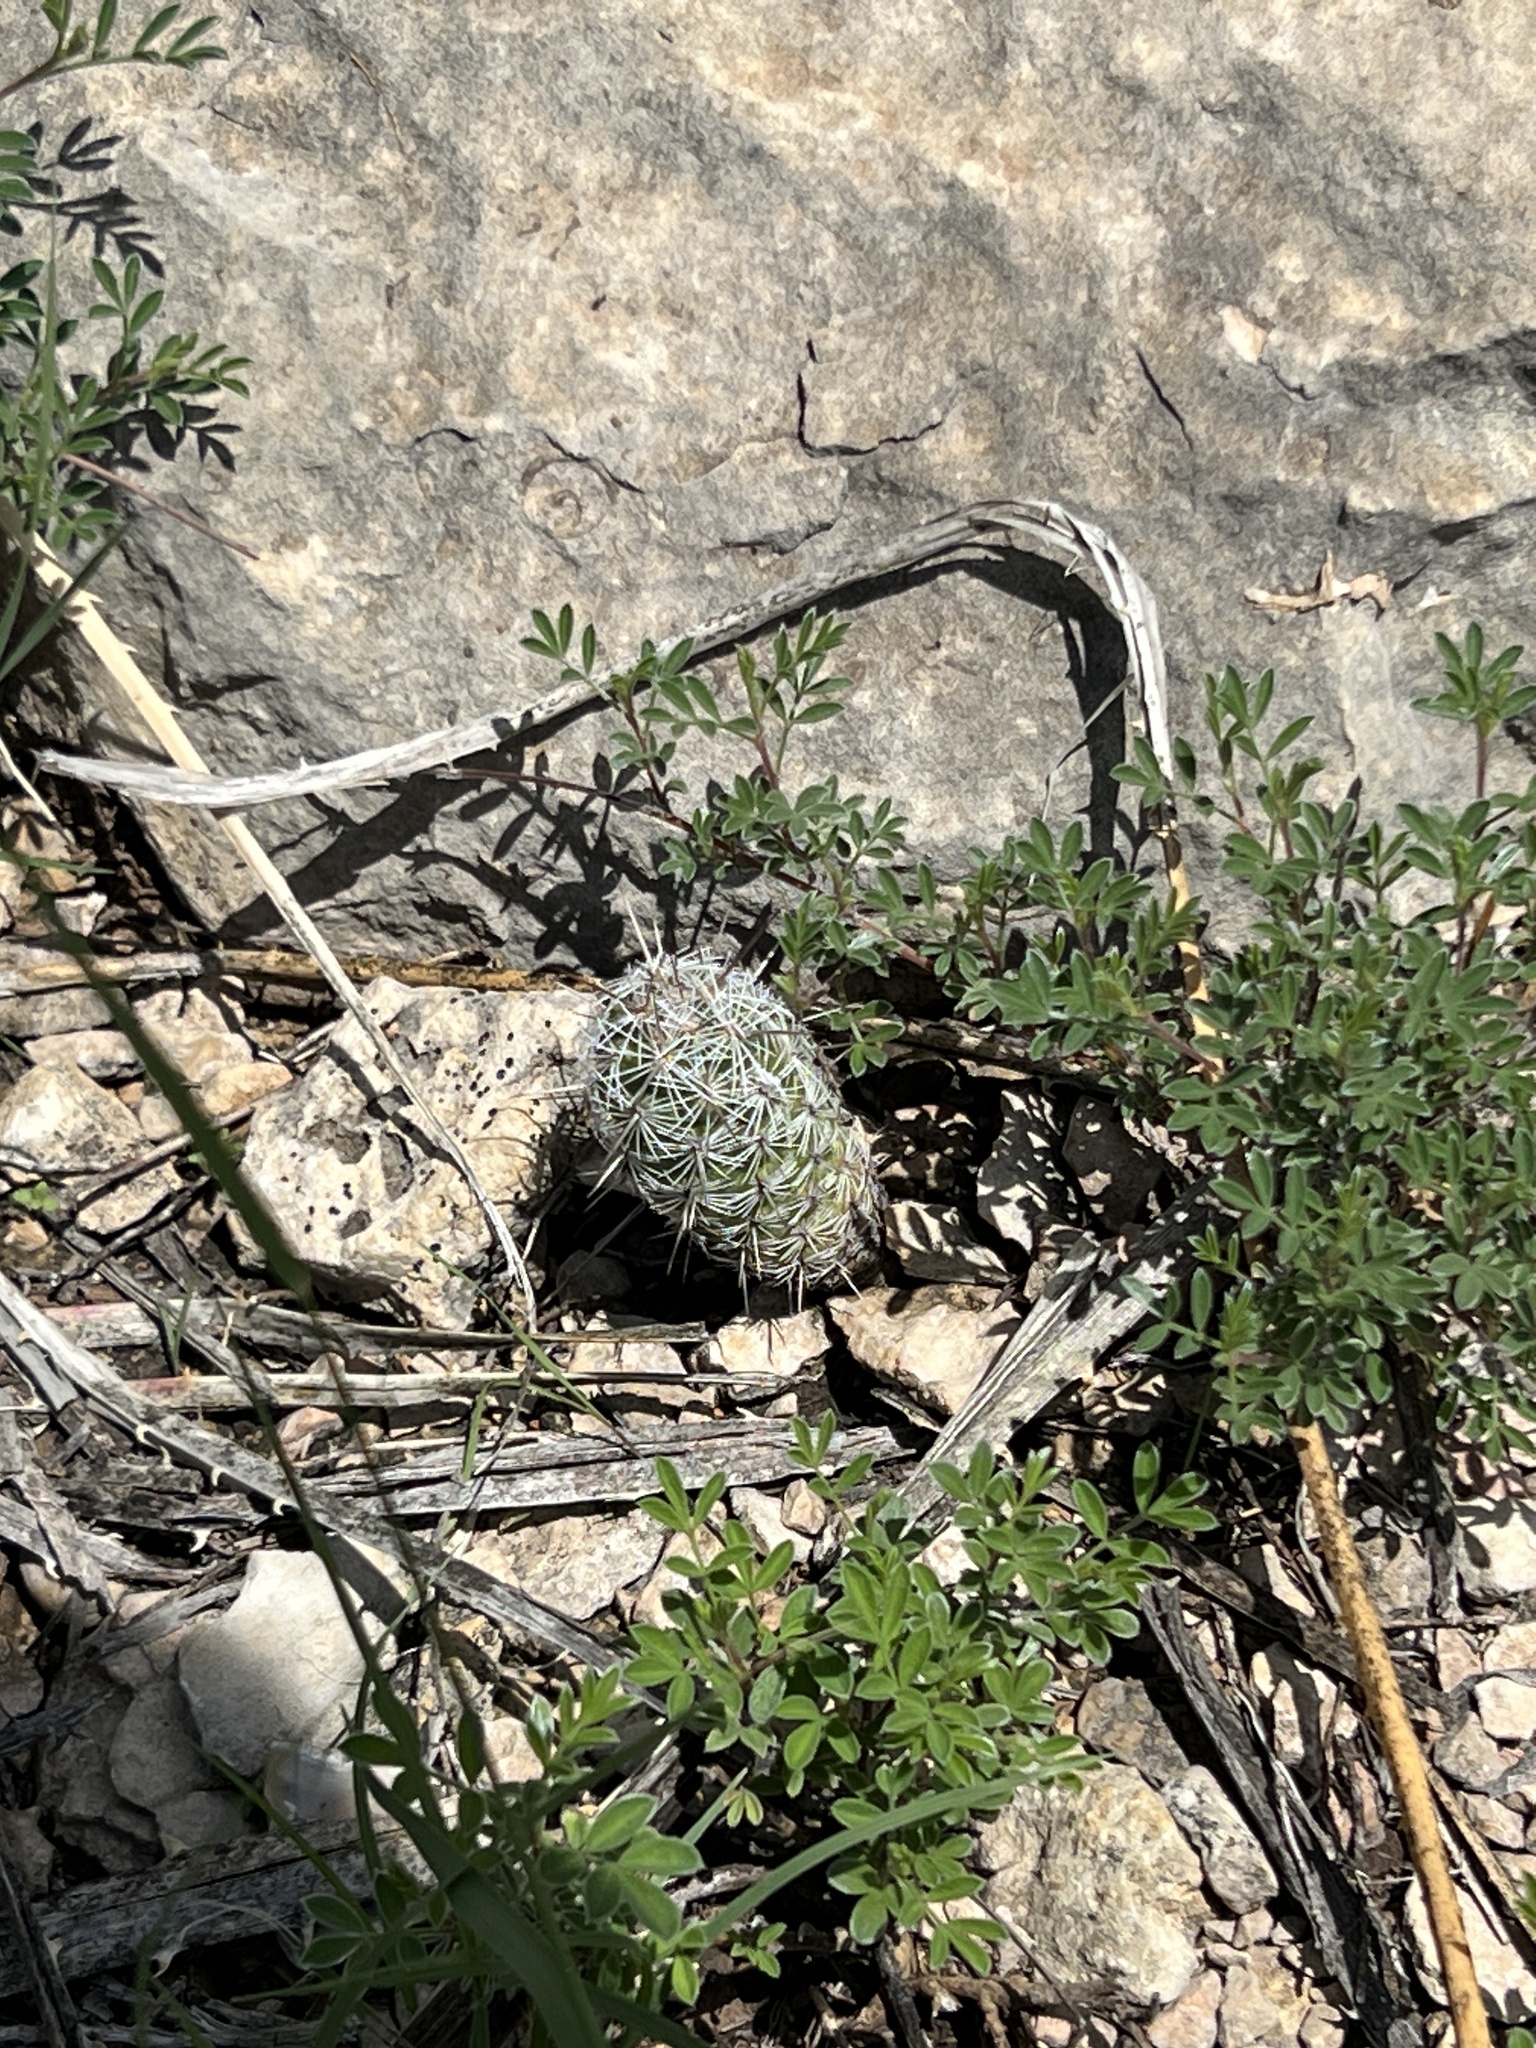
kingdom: Plantae
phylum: Tracheophyta
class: Magnoliopsida
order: Caryophyllales
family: Cactaceae
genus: Cochemiea
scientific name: Cochemiea conoidea
